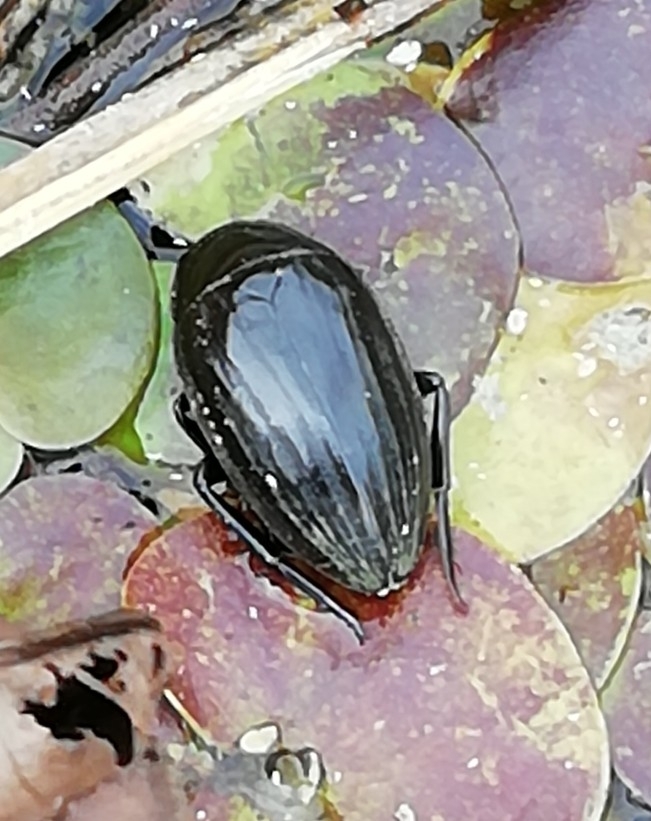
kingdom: Animalia
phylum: Arthropoda
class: Insecta
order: Coleoptera
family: Hydrophilidae
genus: Hydrophilus
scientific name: Hydrophilus piceus
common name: Great silver water beetle
